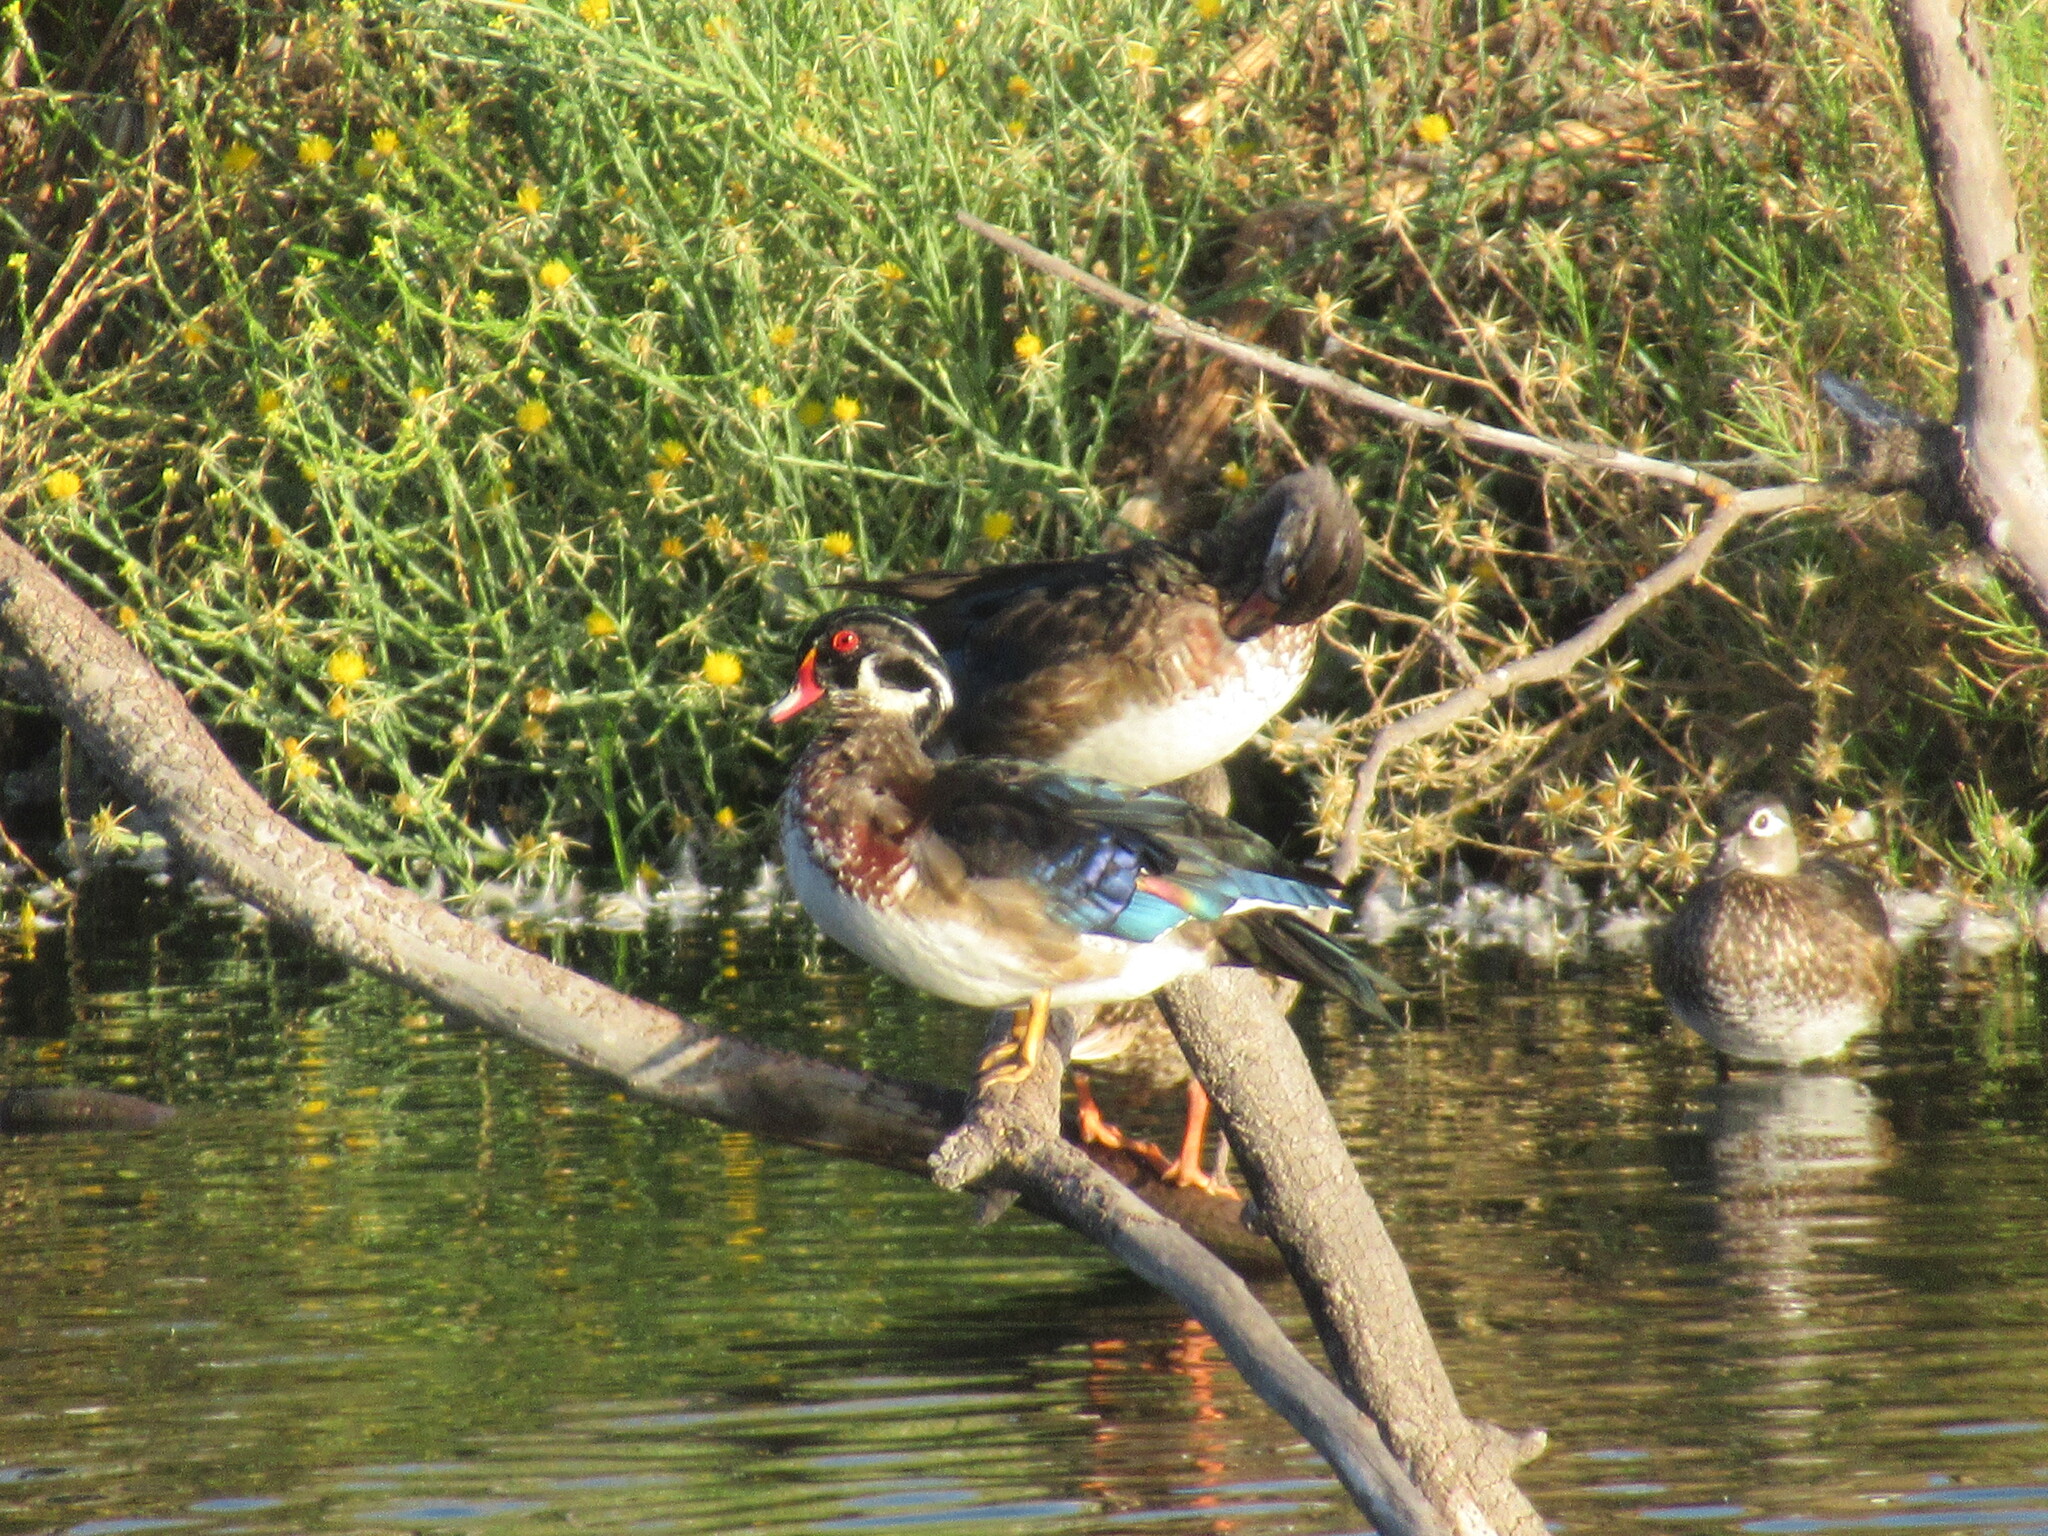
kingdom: Animalia
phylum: Chordata
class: Aves
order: Anseriformes
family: Anatidae
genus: Aix
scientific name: Aix sponsa
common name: Wood duck
